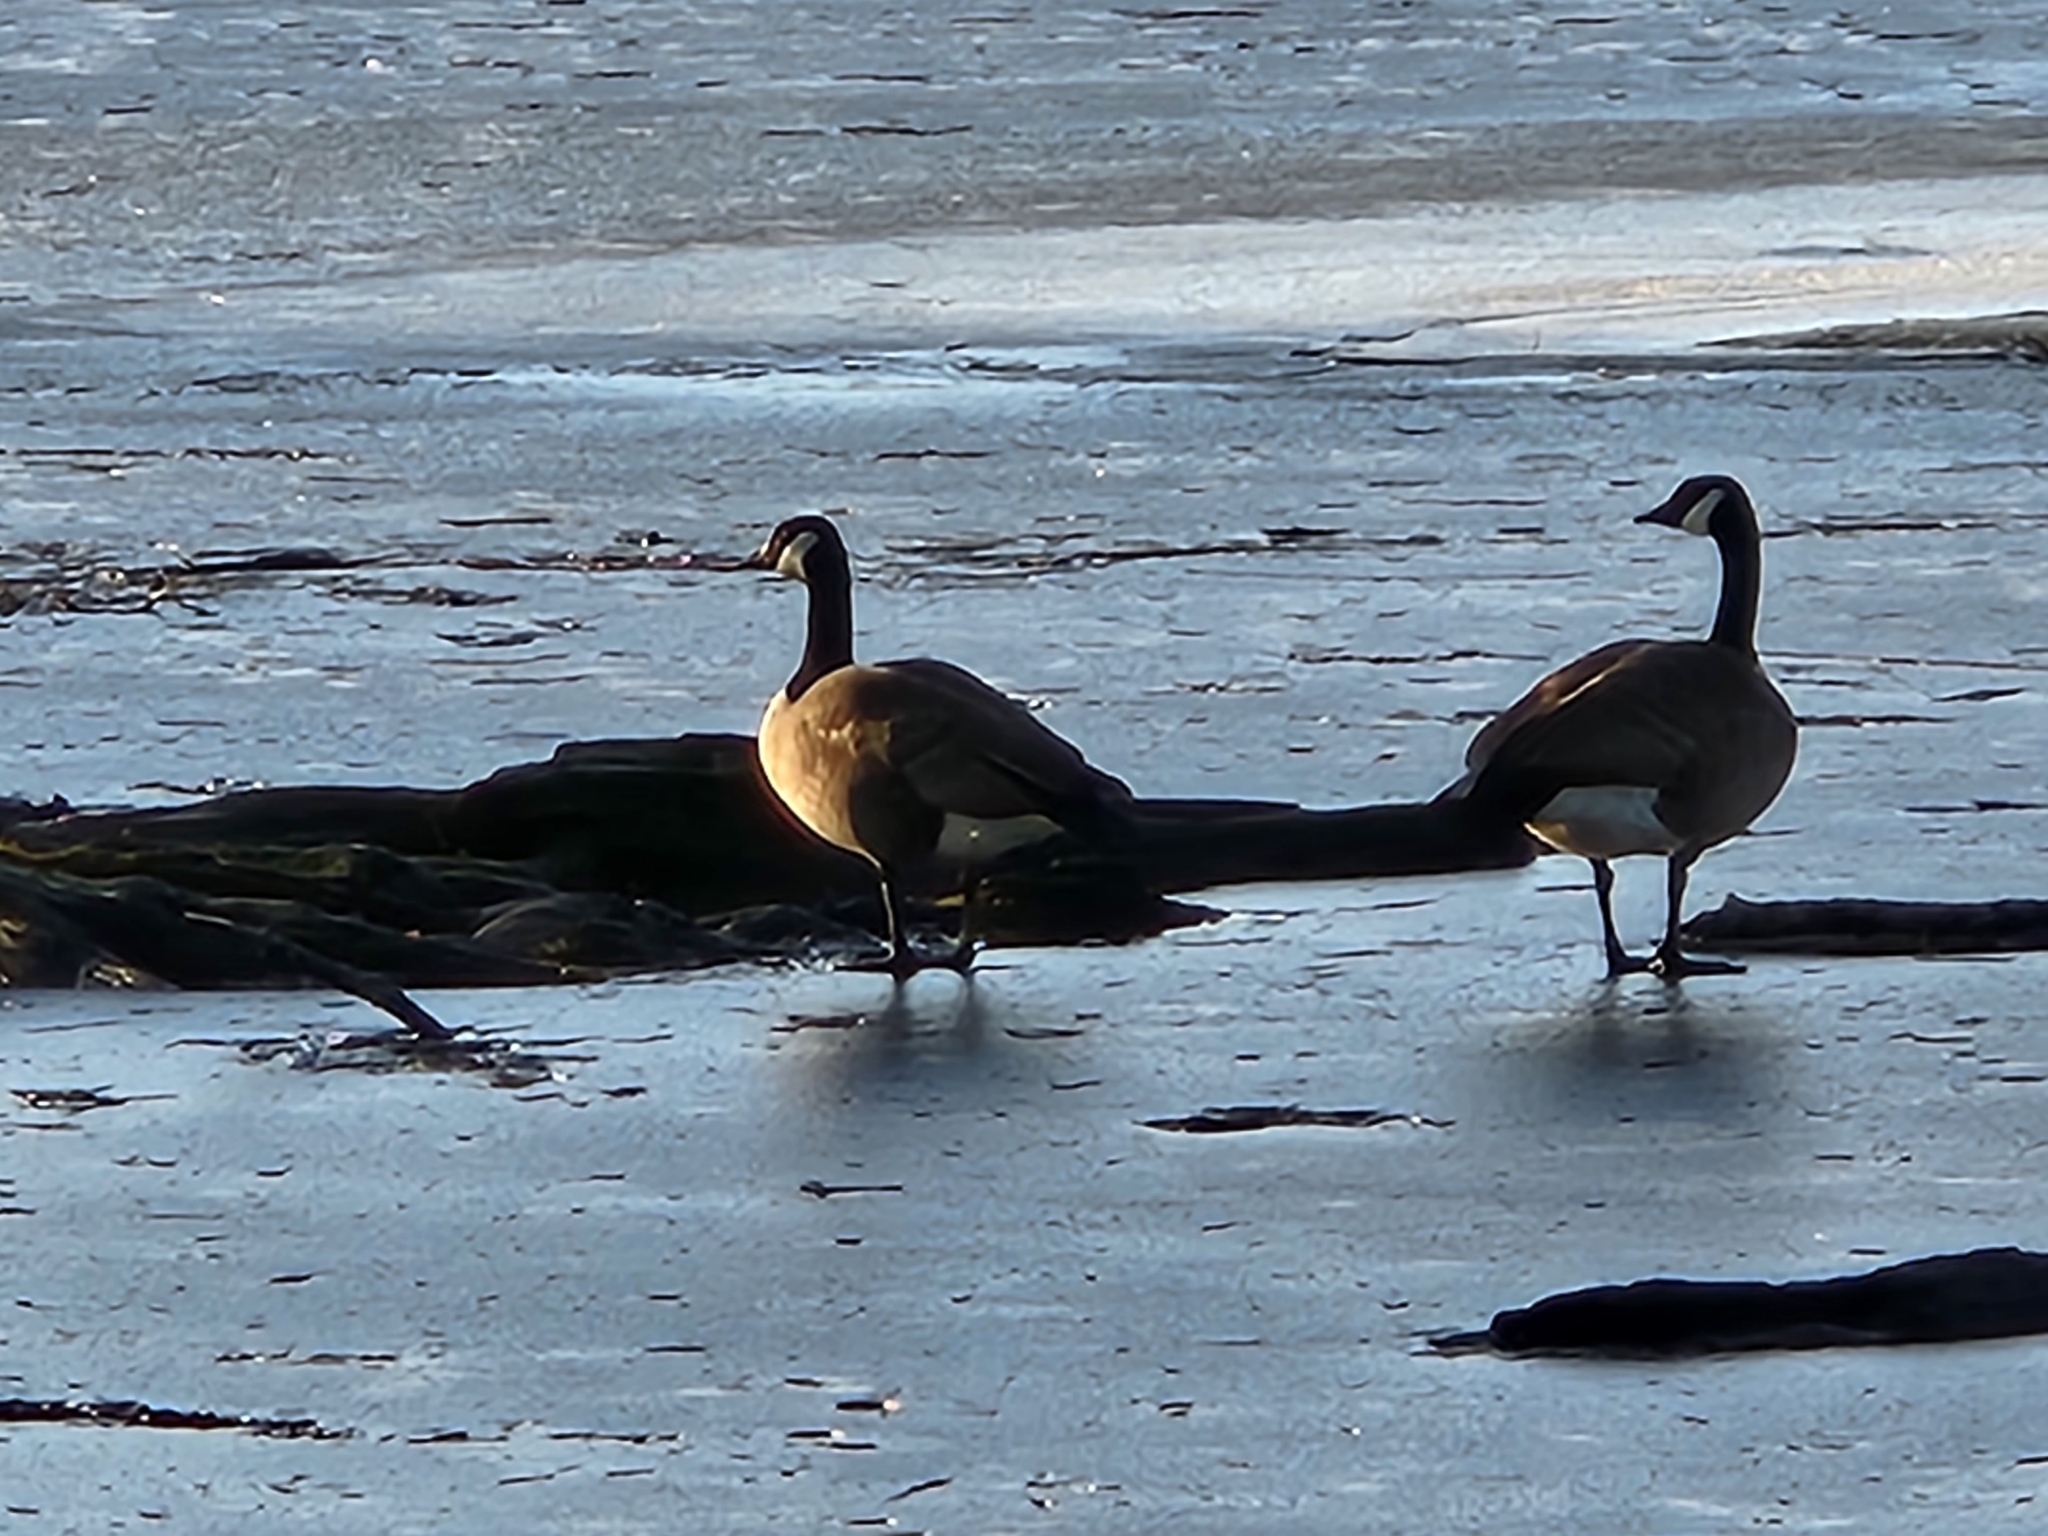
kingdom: Animalia
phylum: Chordata
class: Aves
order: Anseriformes
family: Anatidae
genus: Branta
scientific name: Branta canadensis
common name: Canada goose
